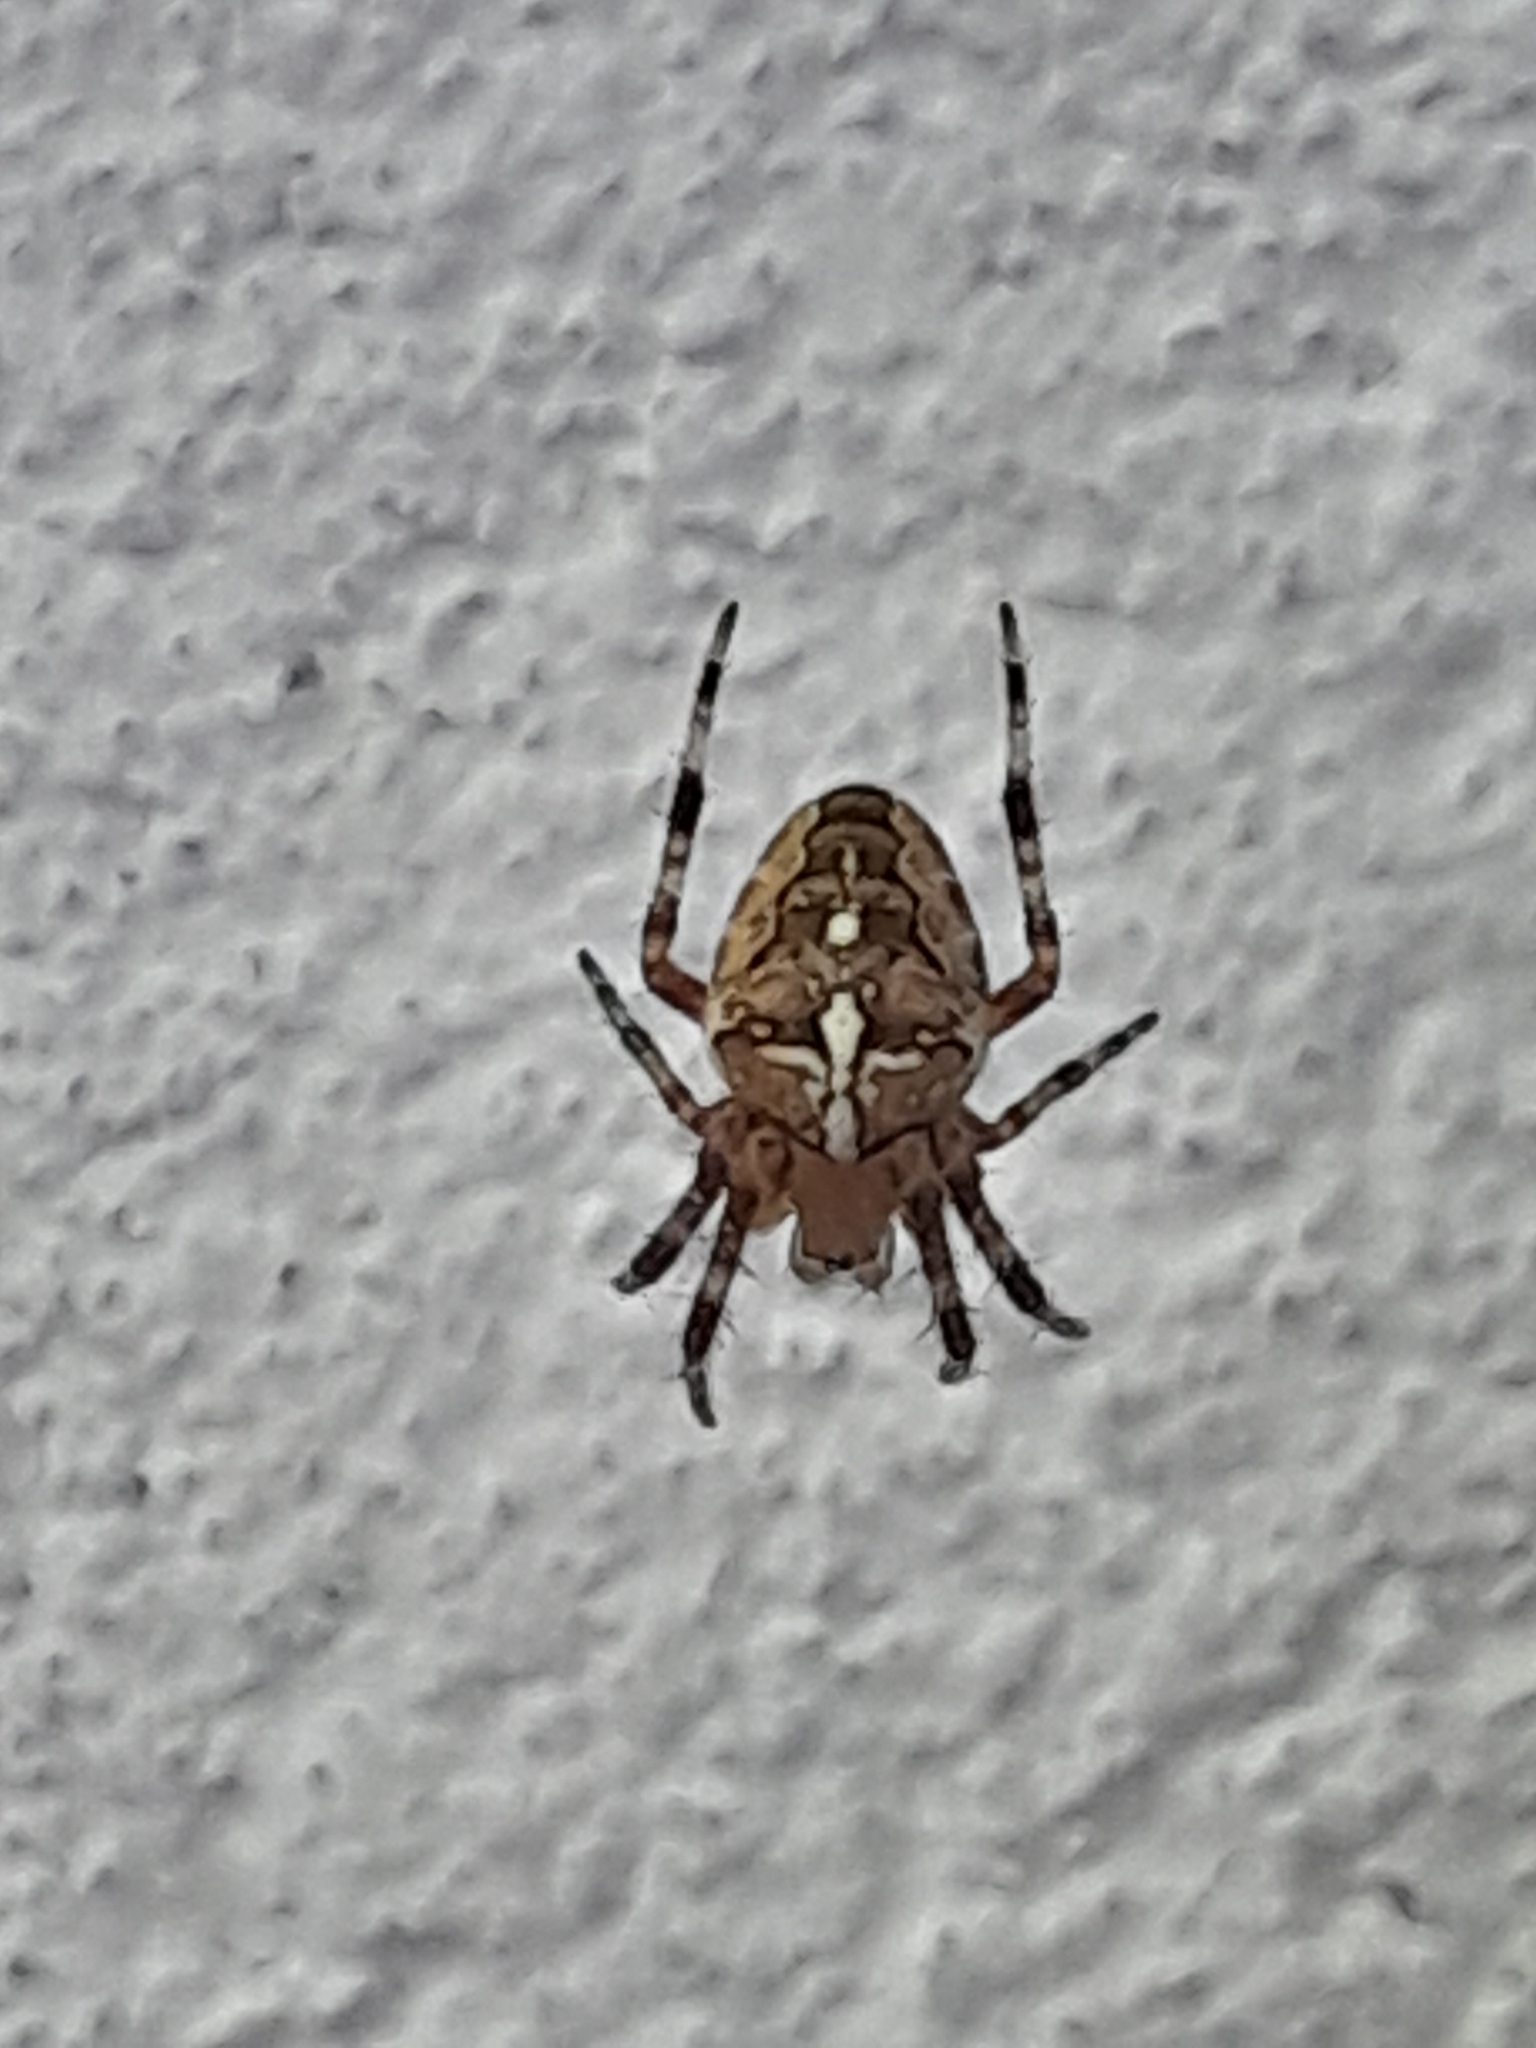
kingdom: Animalia
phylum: Arthropoda
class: Arachnida
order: Araneae
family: Araneidae
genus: Araneus
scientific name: Araneus diadematus
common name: Cross orbweaver
